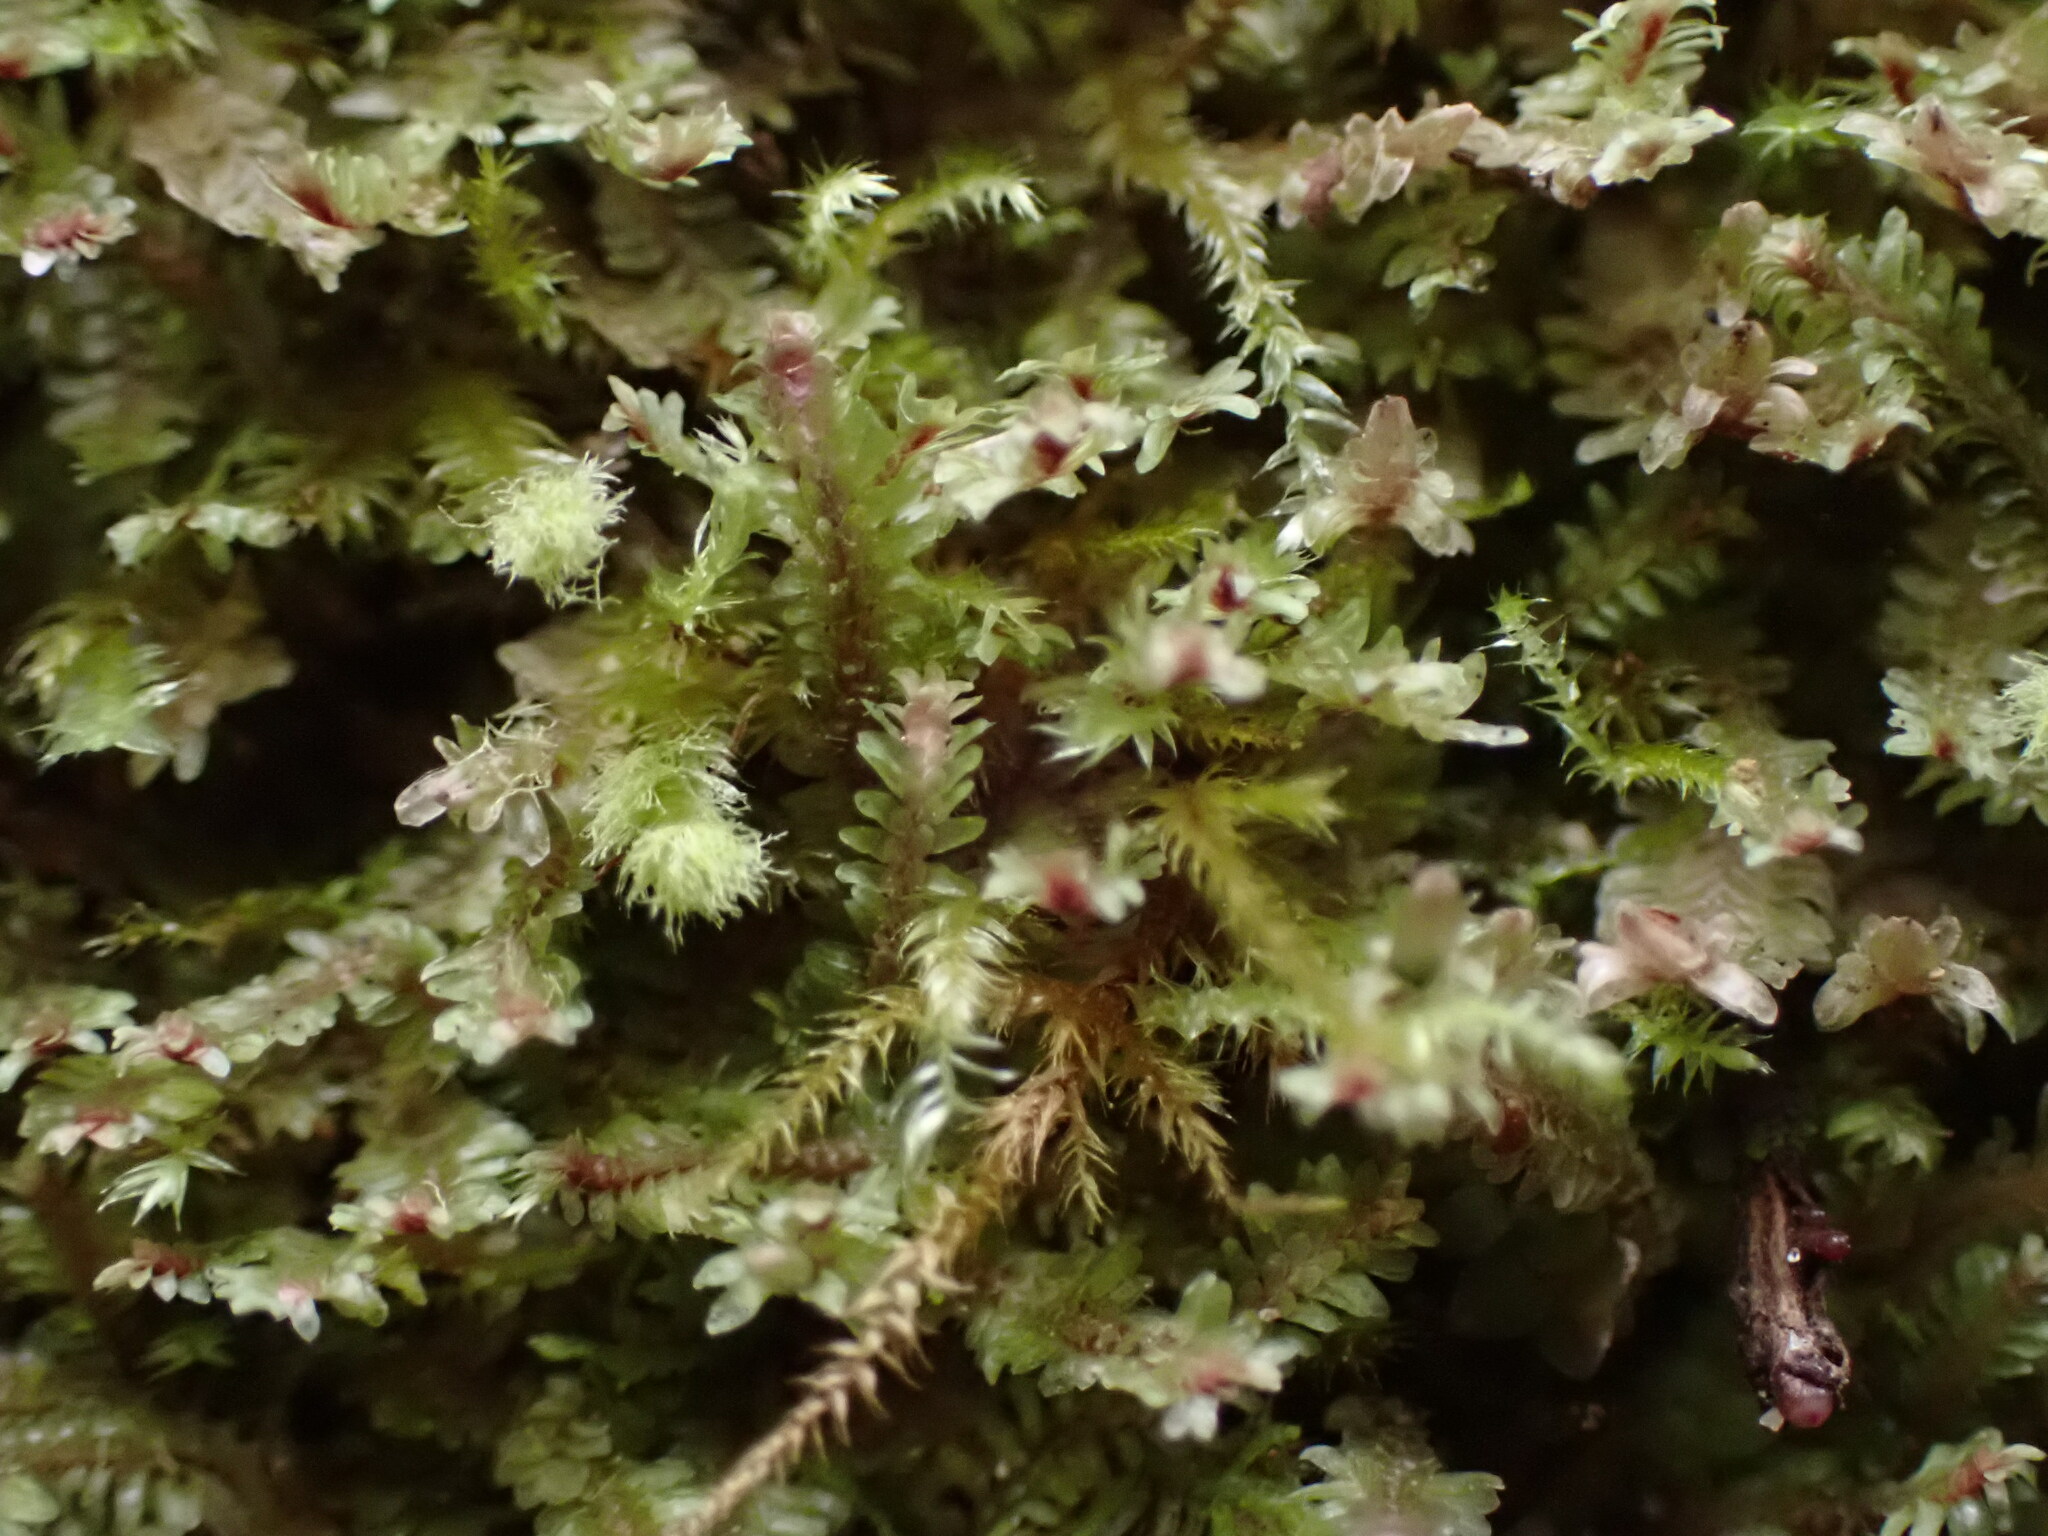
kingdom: Plantae
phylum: Marchantiophyta
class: Jungermanniopsida
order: Jungermanniales
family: Scapaniaceae
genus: Diplophyllum
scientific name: Diplophyllum albicans
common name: White earwort
